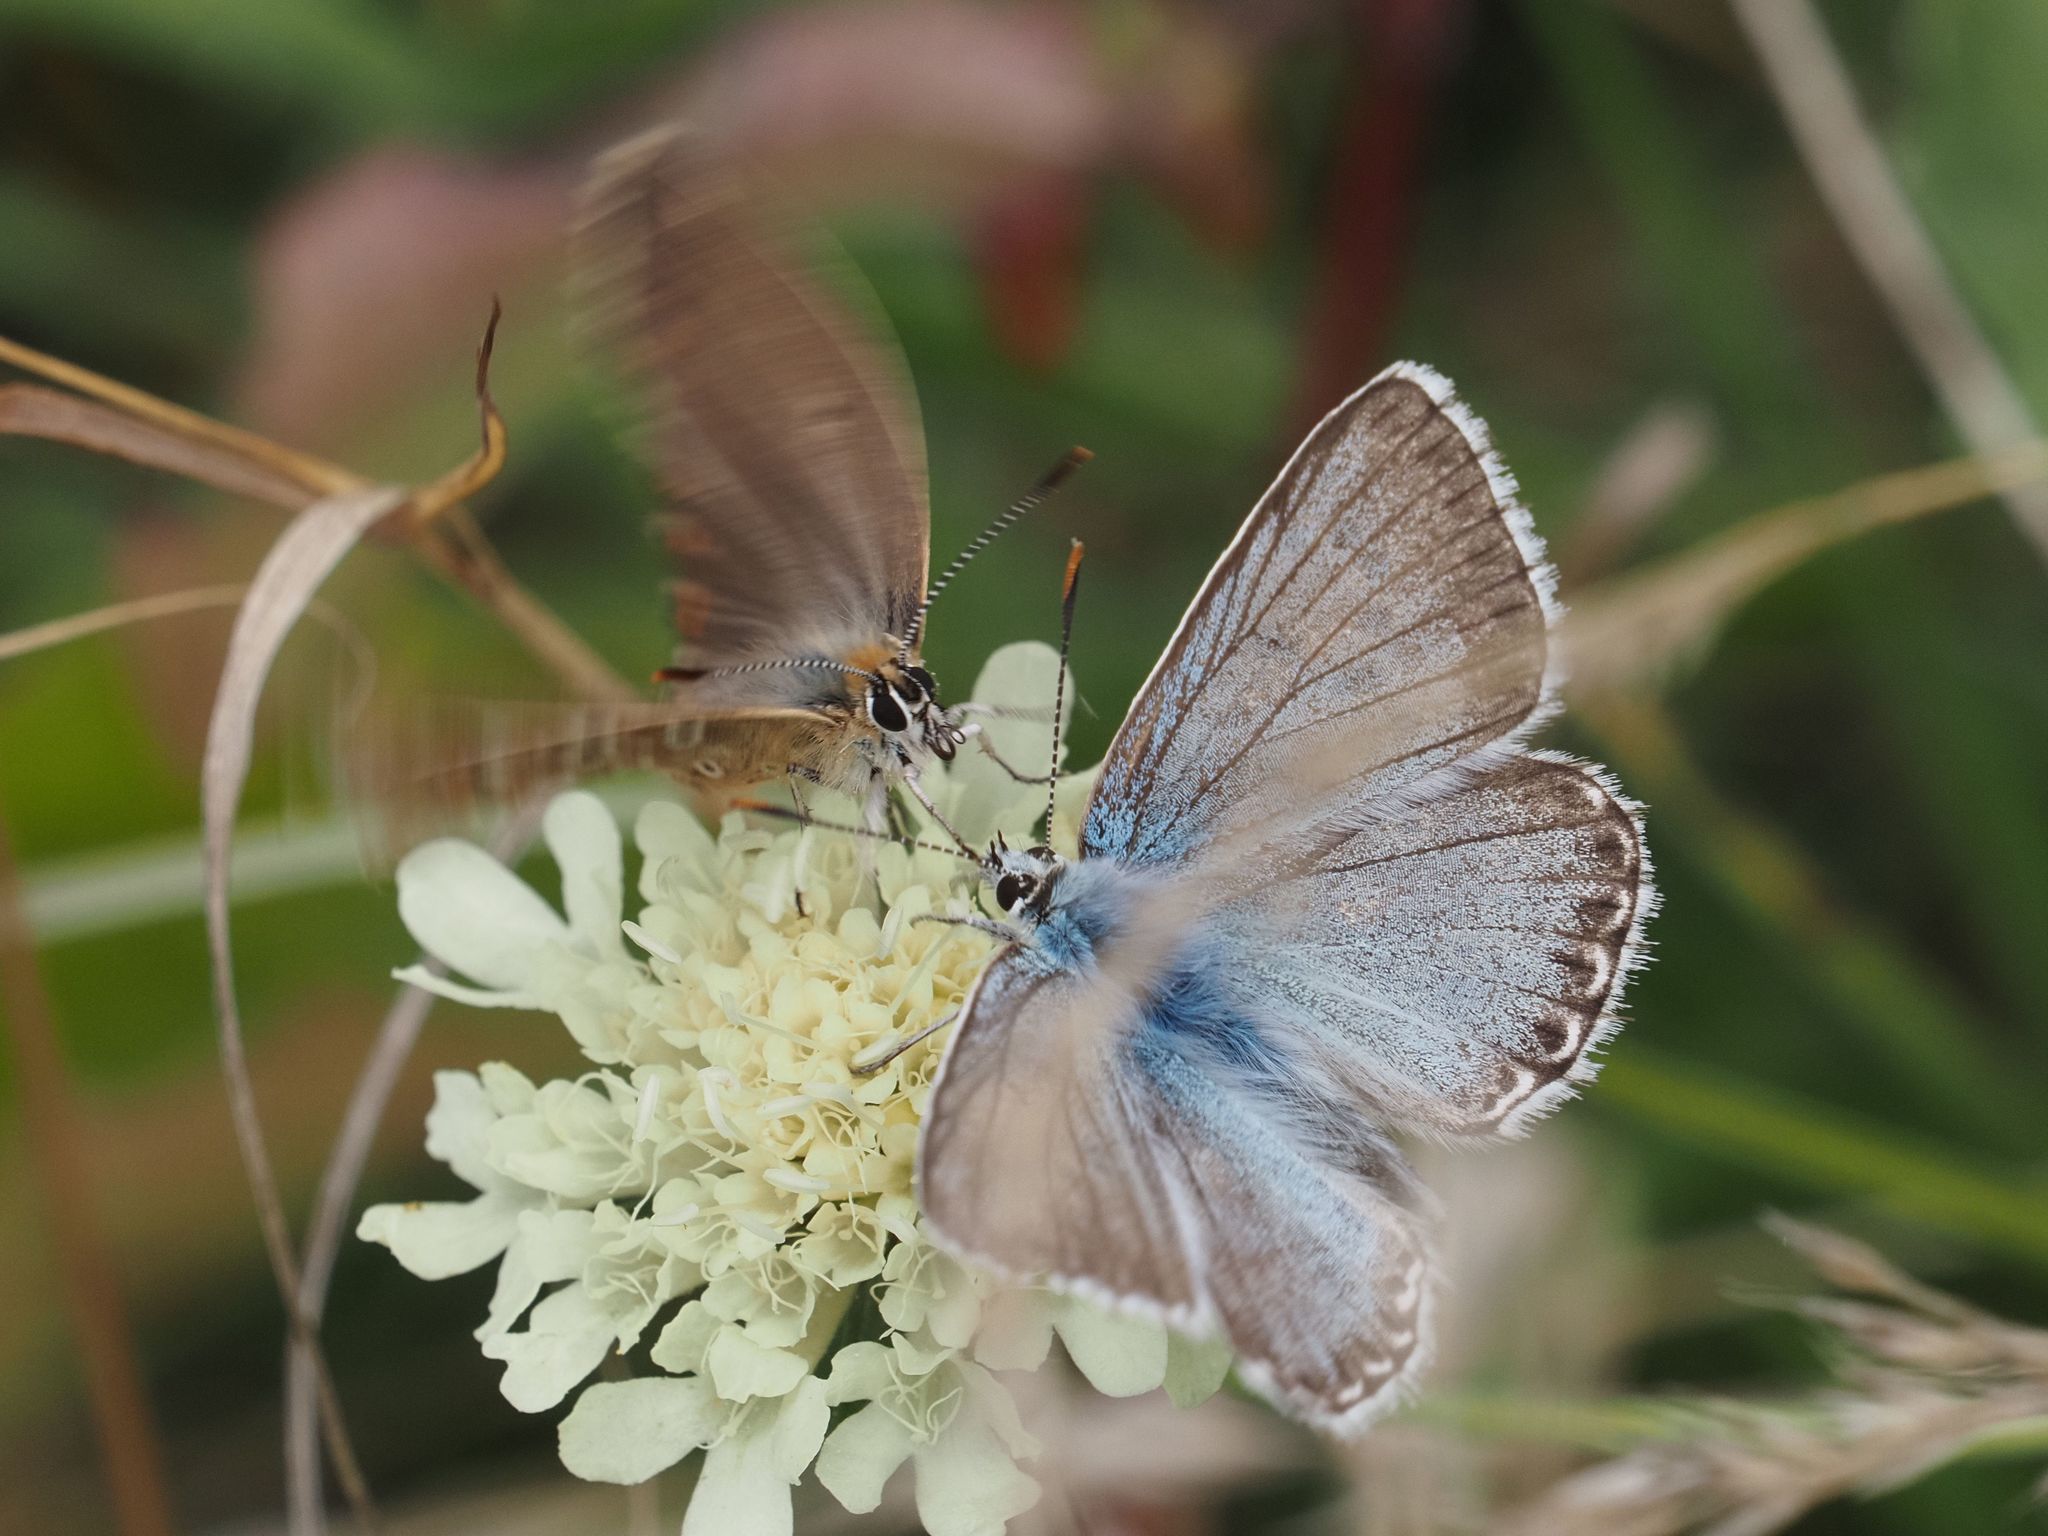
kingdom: Animalia
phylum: Arthropoda
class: Insecta
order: Lepidoptera
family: Lycaenidae
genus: Lysandra
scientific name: Lysandra coridon
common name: Chalkhill blue
